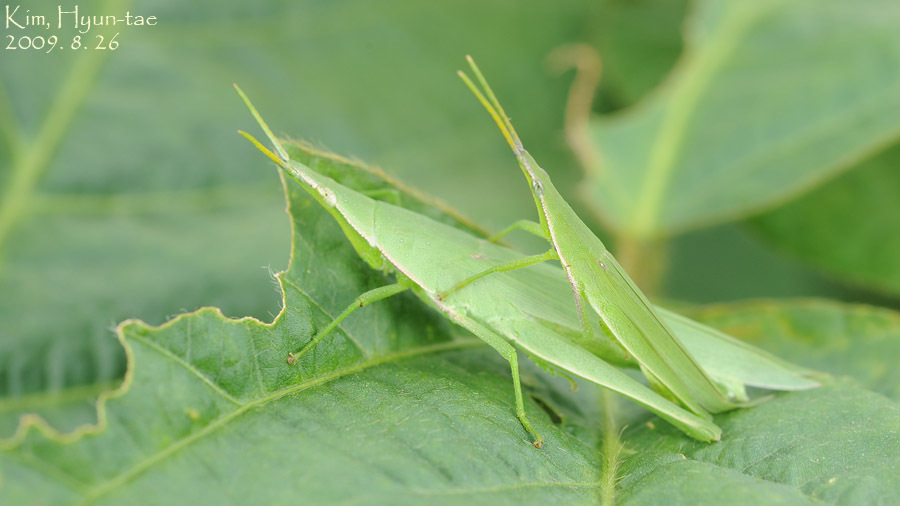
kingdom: Animalia
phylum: Arthropoda
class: Insecta
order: Orthoptera
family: Pyrgomorphidae
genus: Atractomorpha
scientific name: Atractomorpha lata
